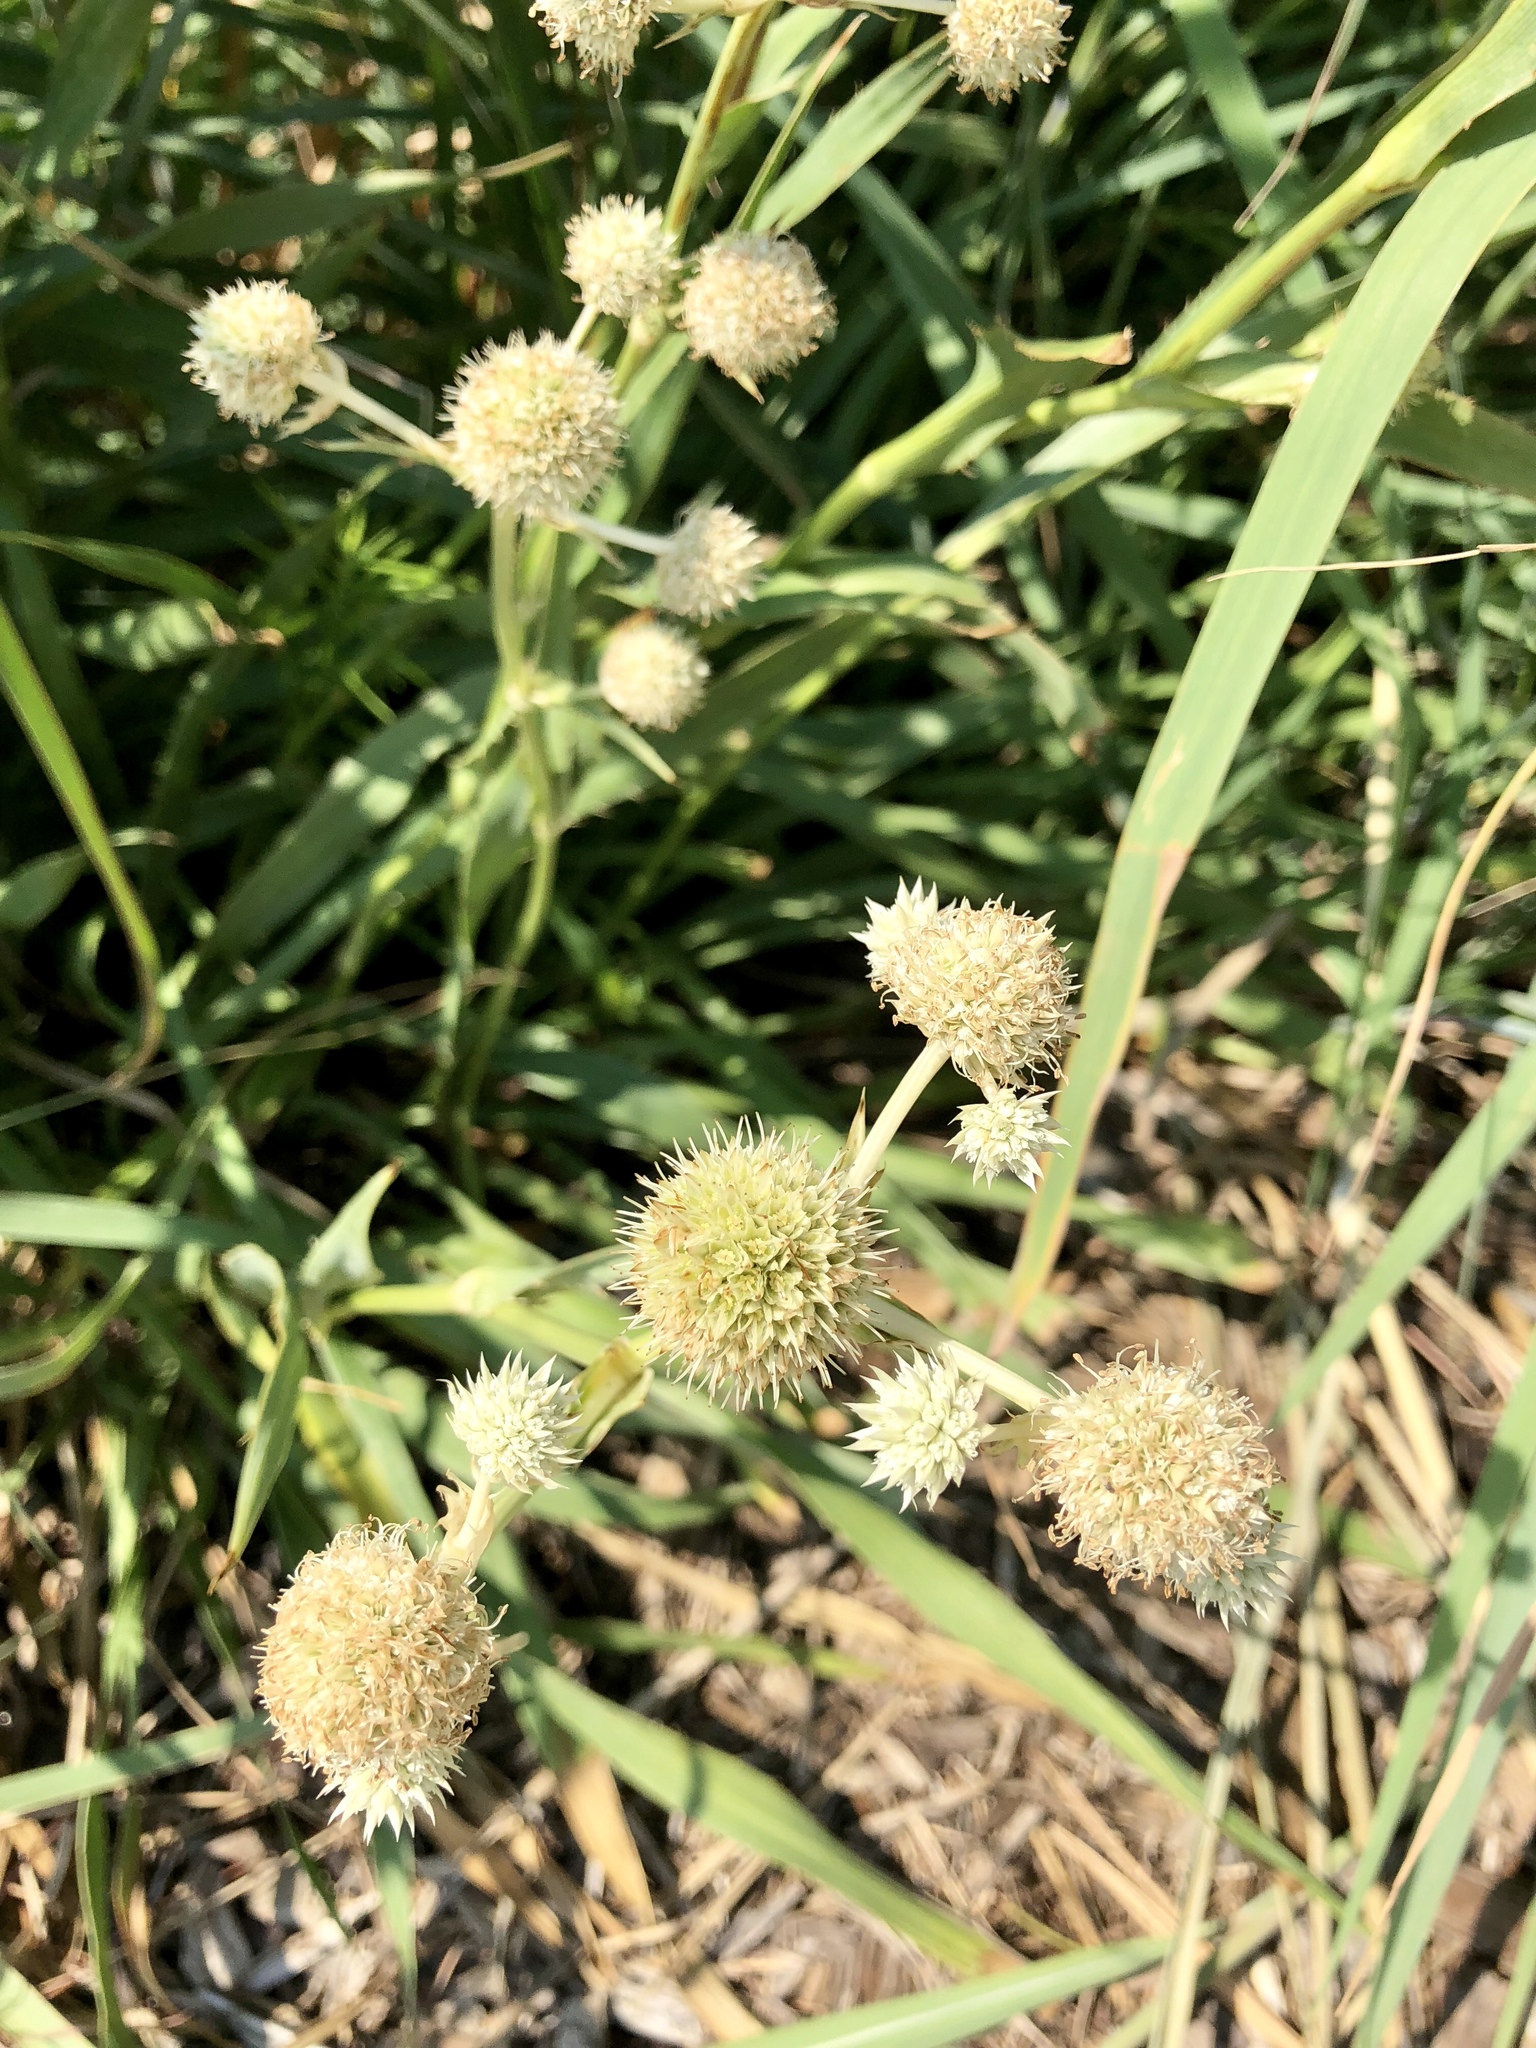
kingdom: Plantae
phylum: Tracheophyta
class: Magnoliopsida
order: Apiales
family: Apiaceae
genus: Eryngium
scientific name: Eryngium yuccifolium
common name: Button eryngo
